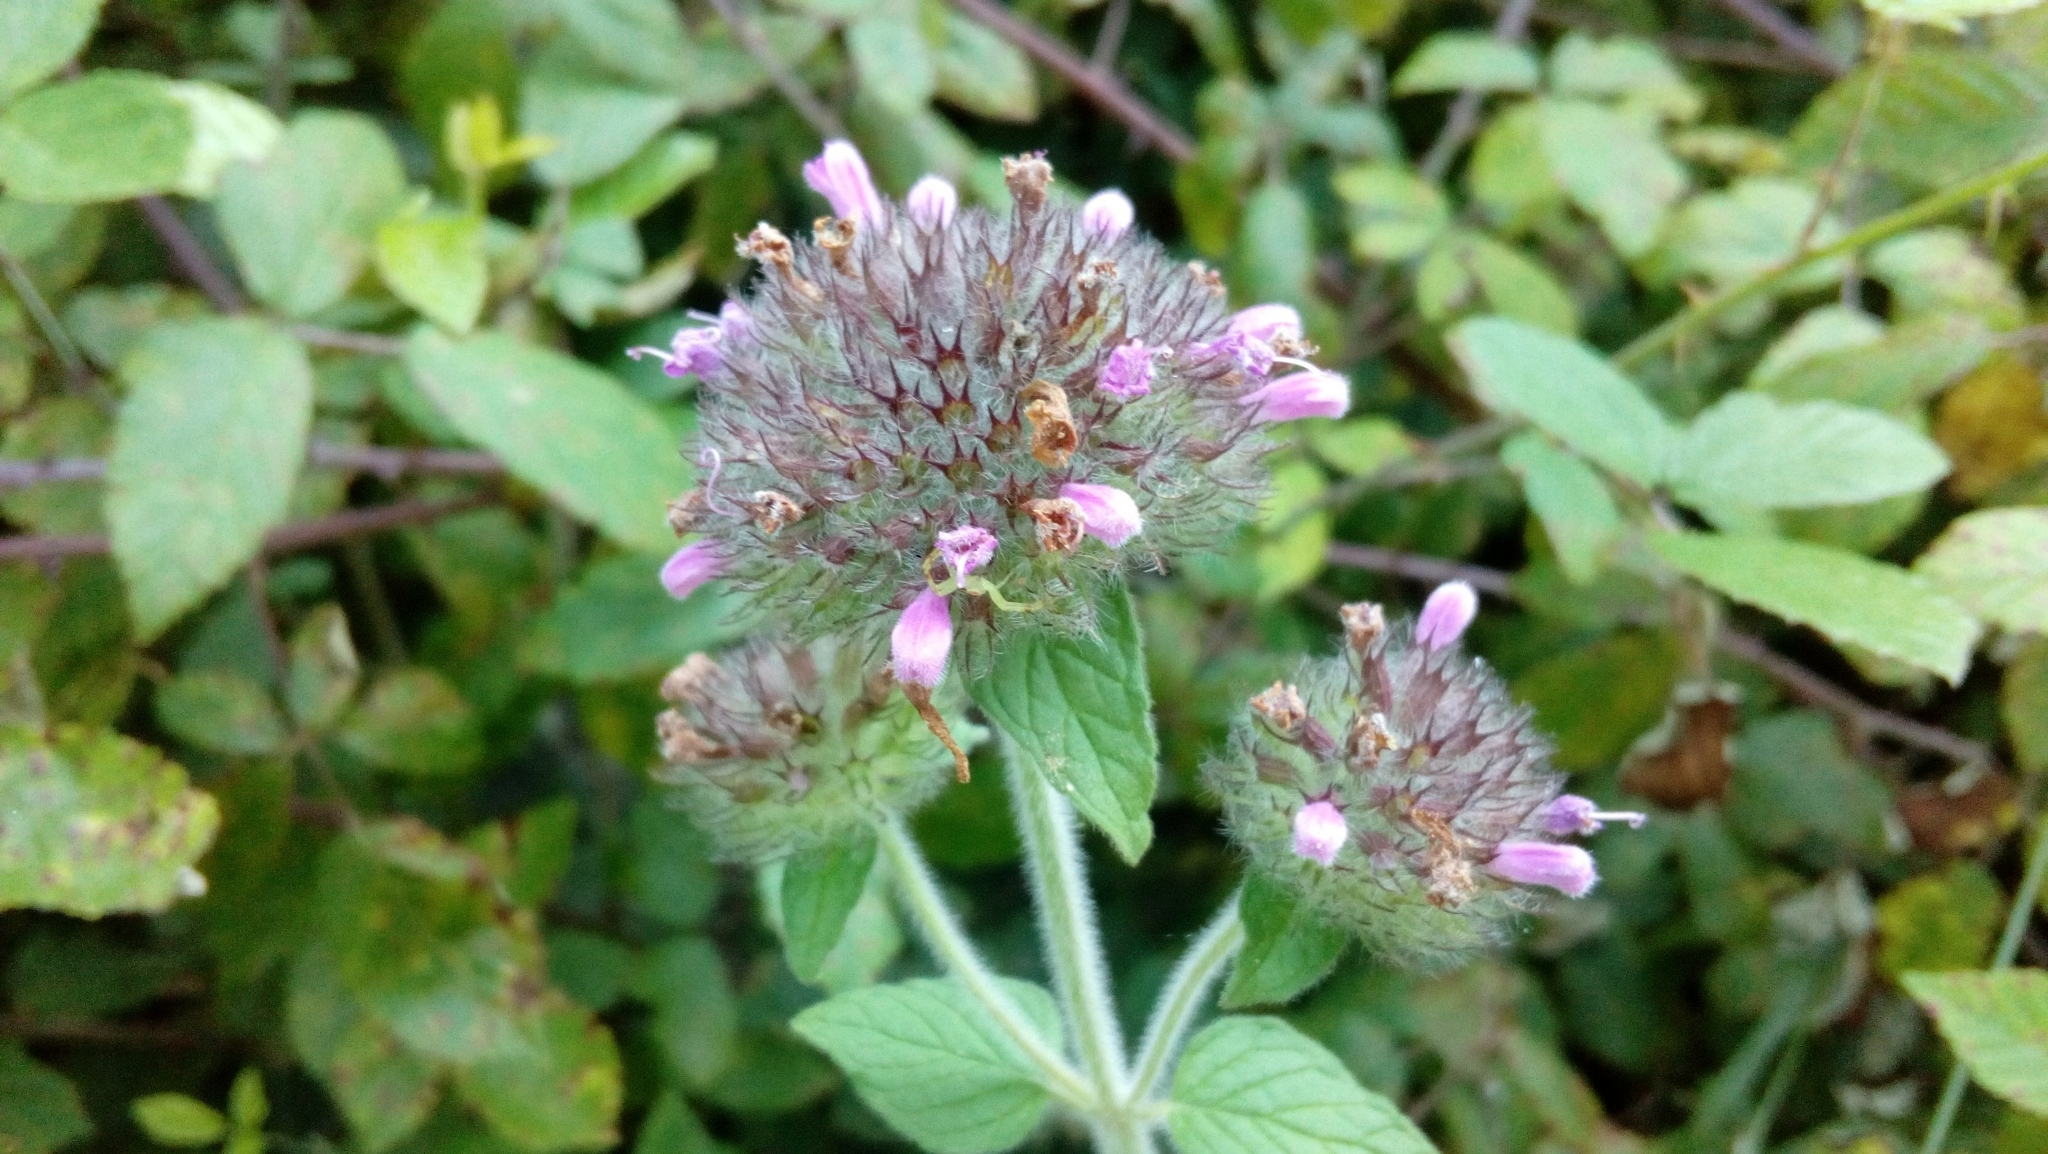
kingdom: Plantae
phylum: Tracheophyta
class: Magnoliopsida
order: Lamiales
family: Lamiaceae
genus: Clinopodium
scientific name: Clinopodium vulgare
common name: Wild basil
